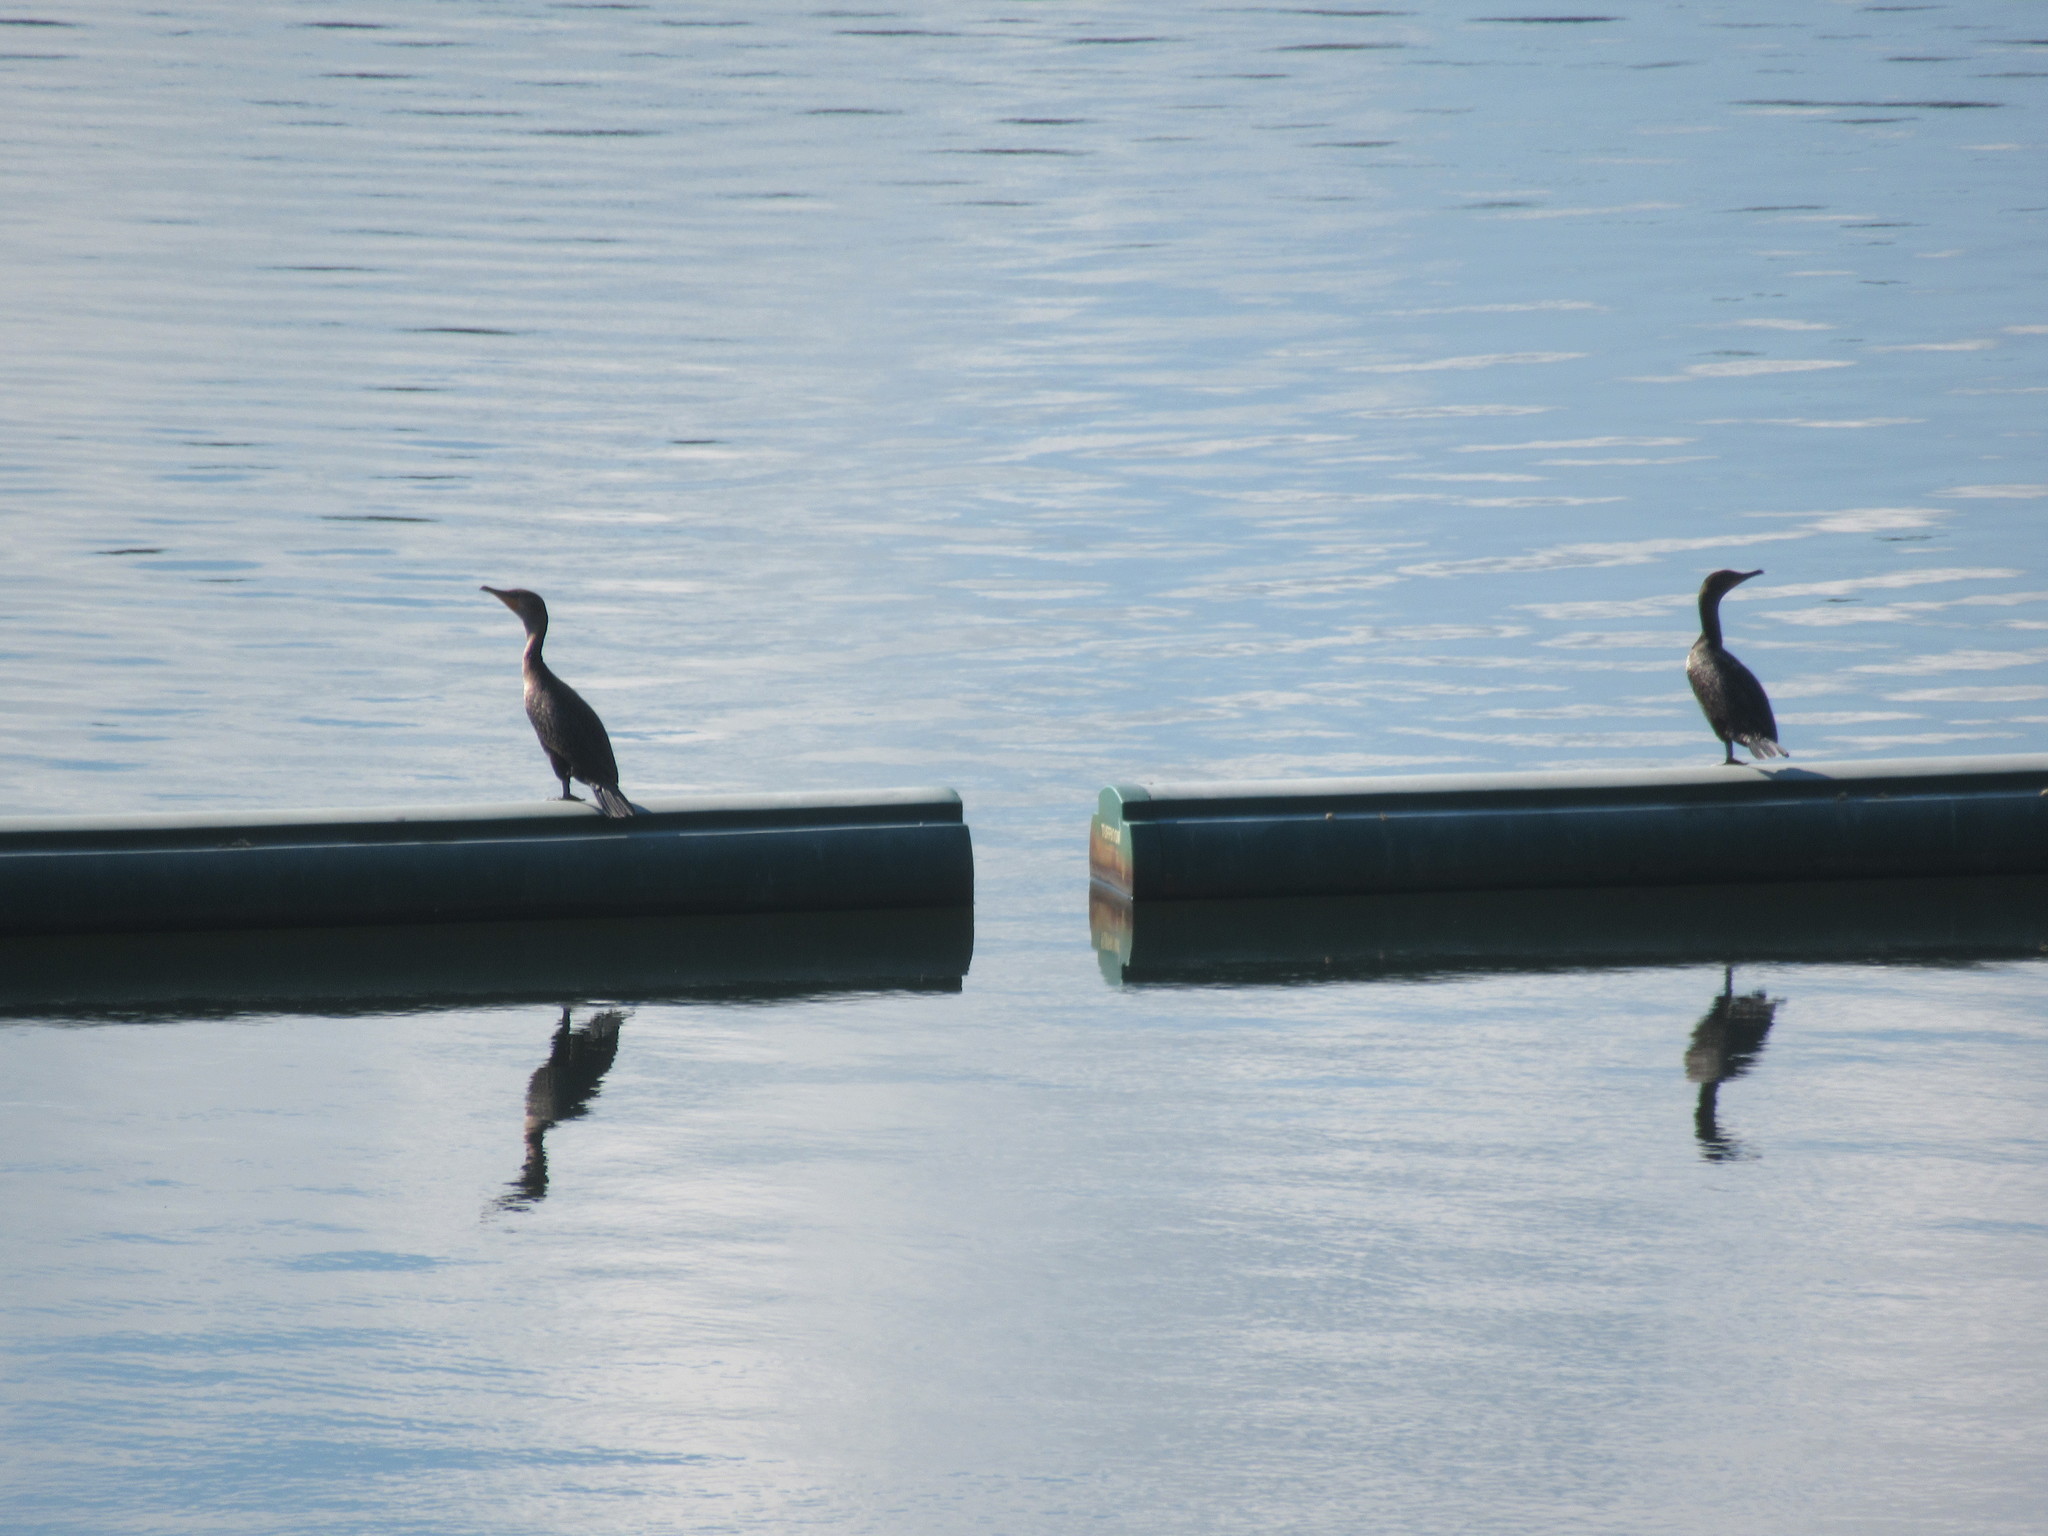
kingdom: Animalia
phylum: Chordata
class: Aves
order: Suliformes
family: Phalacrocoracidae
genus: Phalacrocorax
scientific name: Phalacrocorax auritus
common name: Double-crested cormorant
